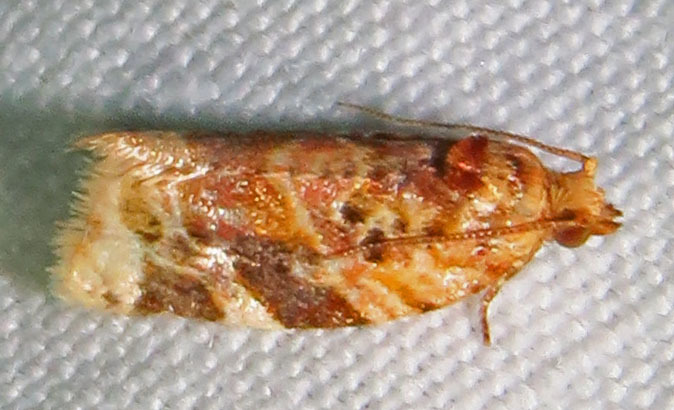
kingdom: Animalia
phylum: Arthropoda
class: Insecta
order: Lepidoptera
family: Tortricidae
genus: Argyrotaenia
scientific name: Argyrotaenia velutinana
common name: Red-banded leafroller moth
